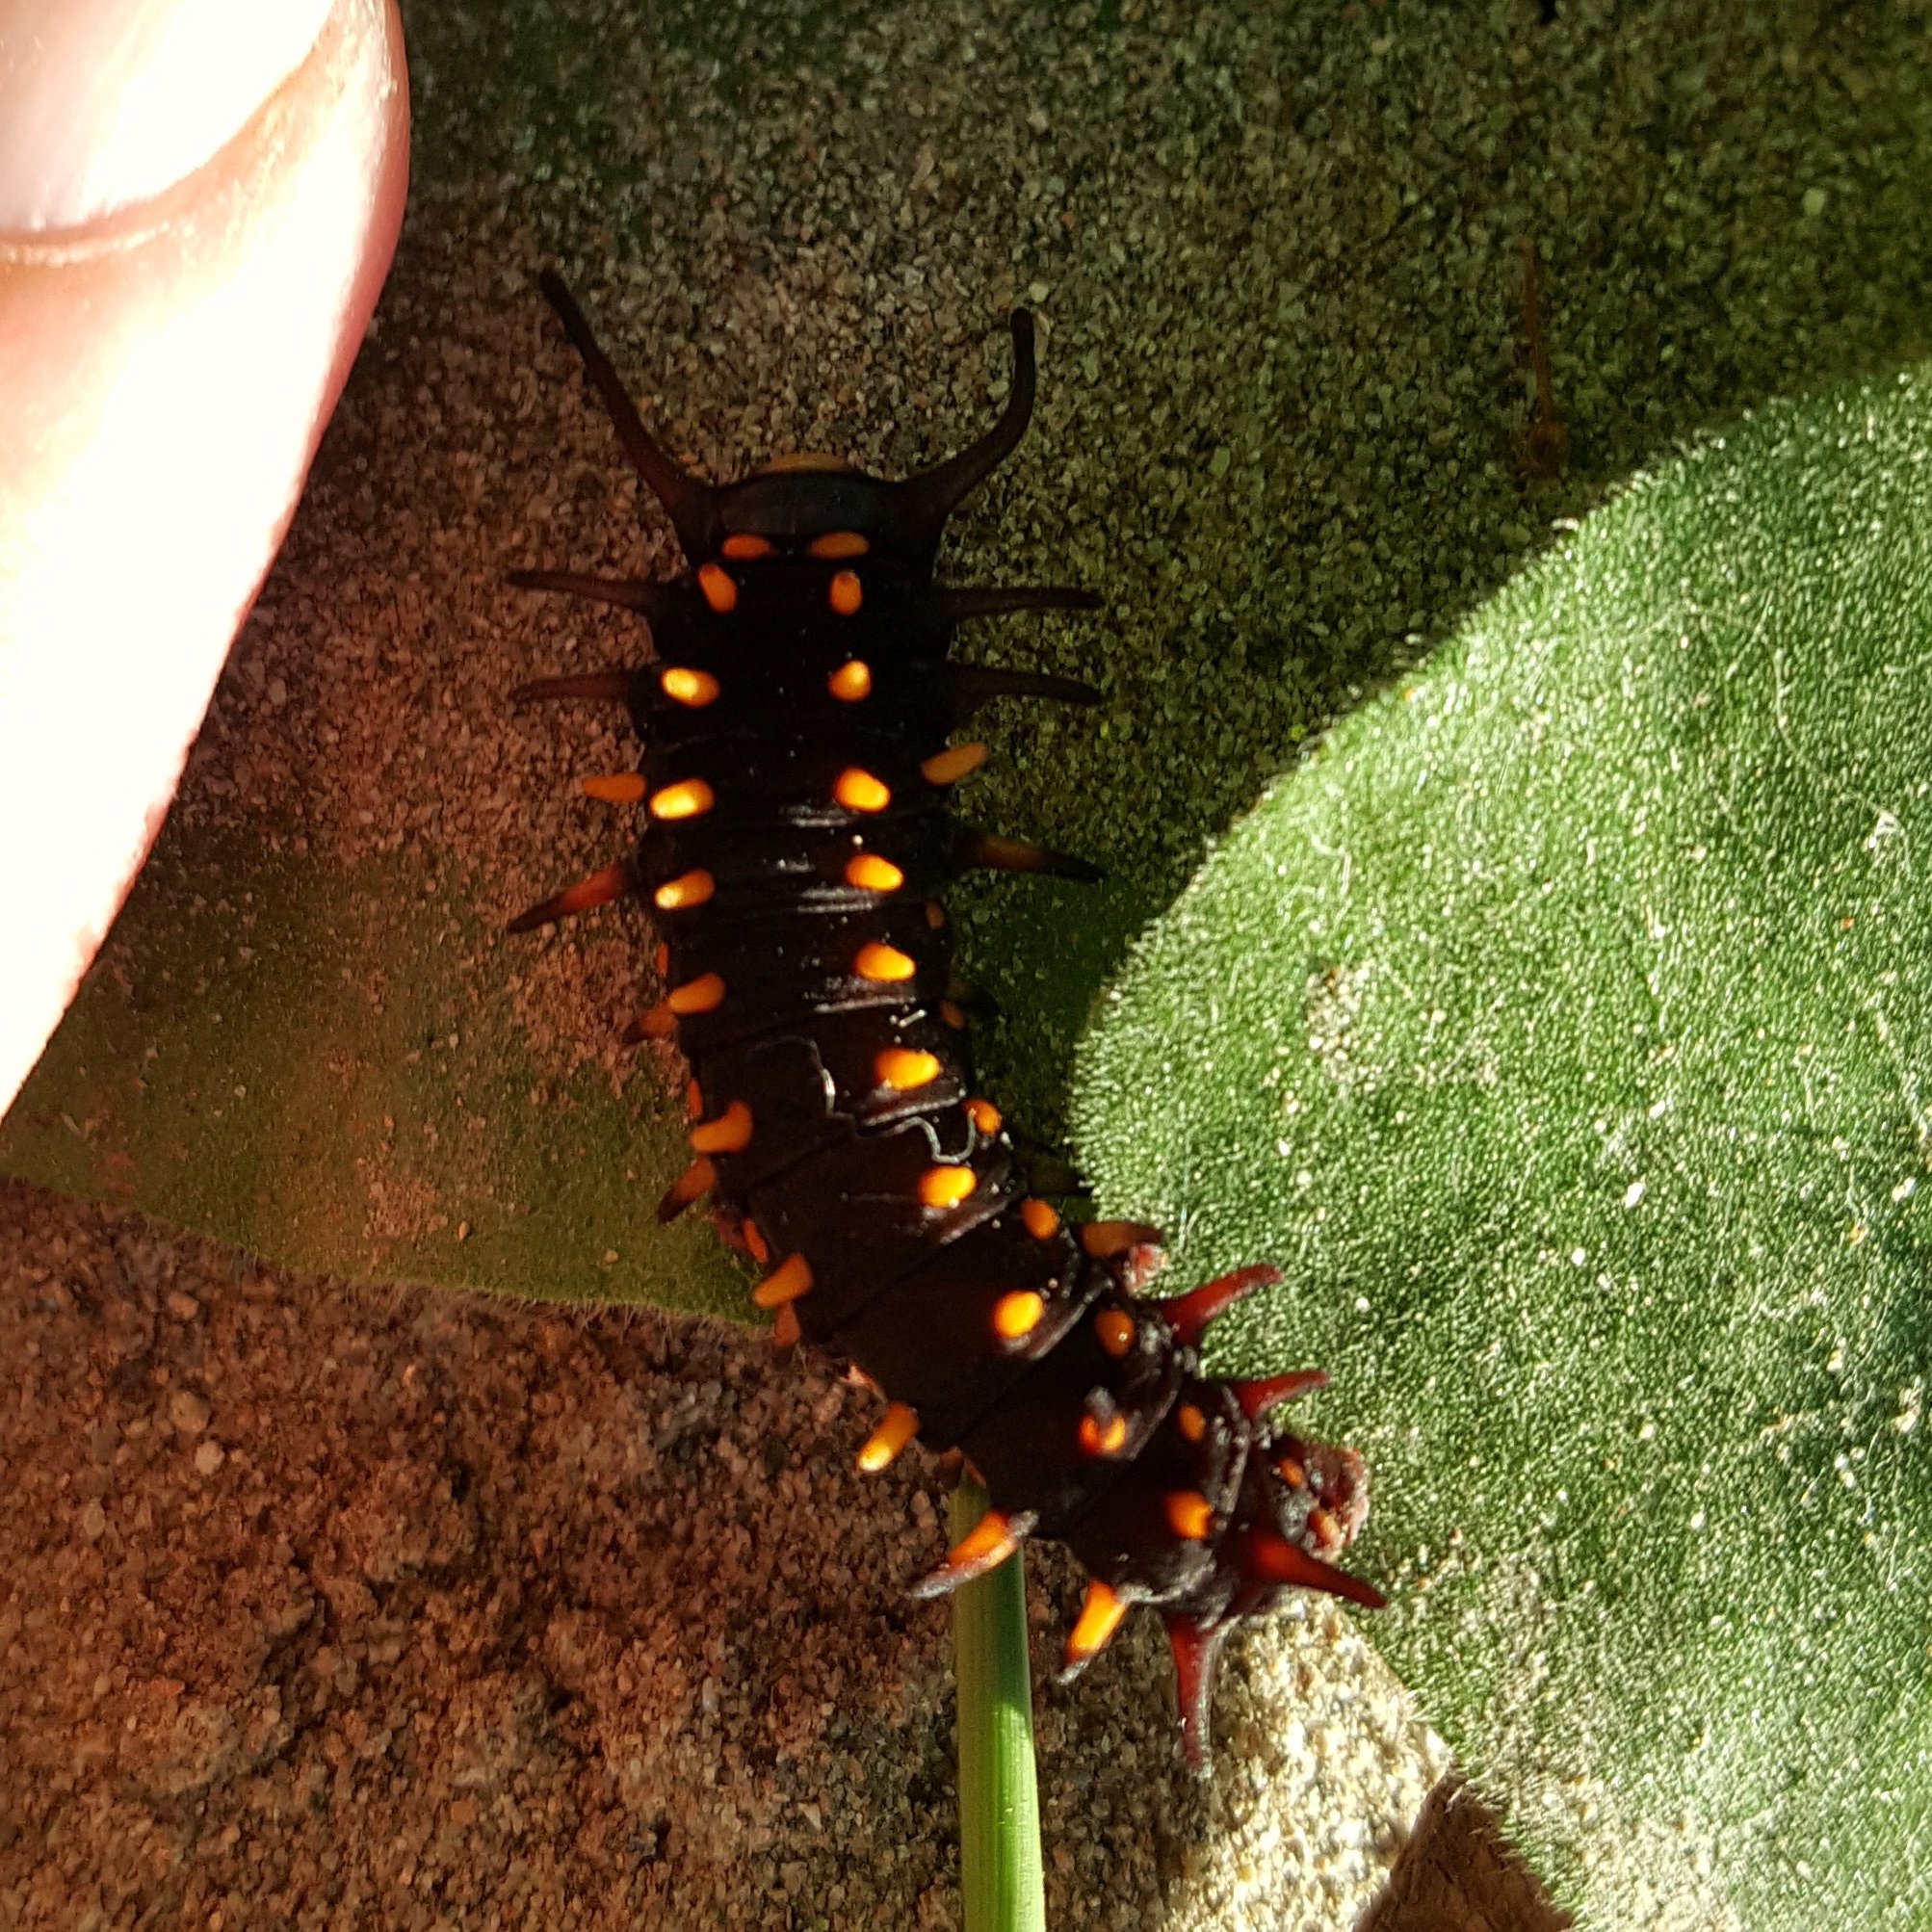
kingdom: Animalia
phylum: Arthropoda
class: Insecta
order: Lepidoptera
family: Papilionidae
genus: Battus
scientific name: Battus philenor
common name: Pipevine swallowtail
